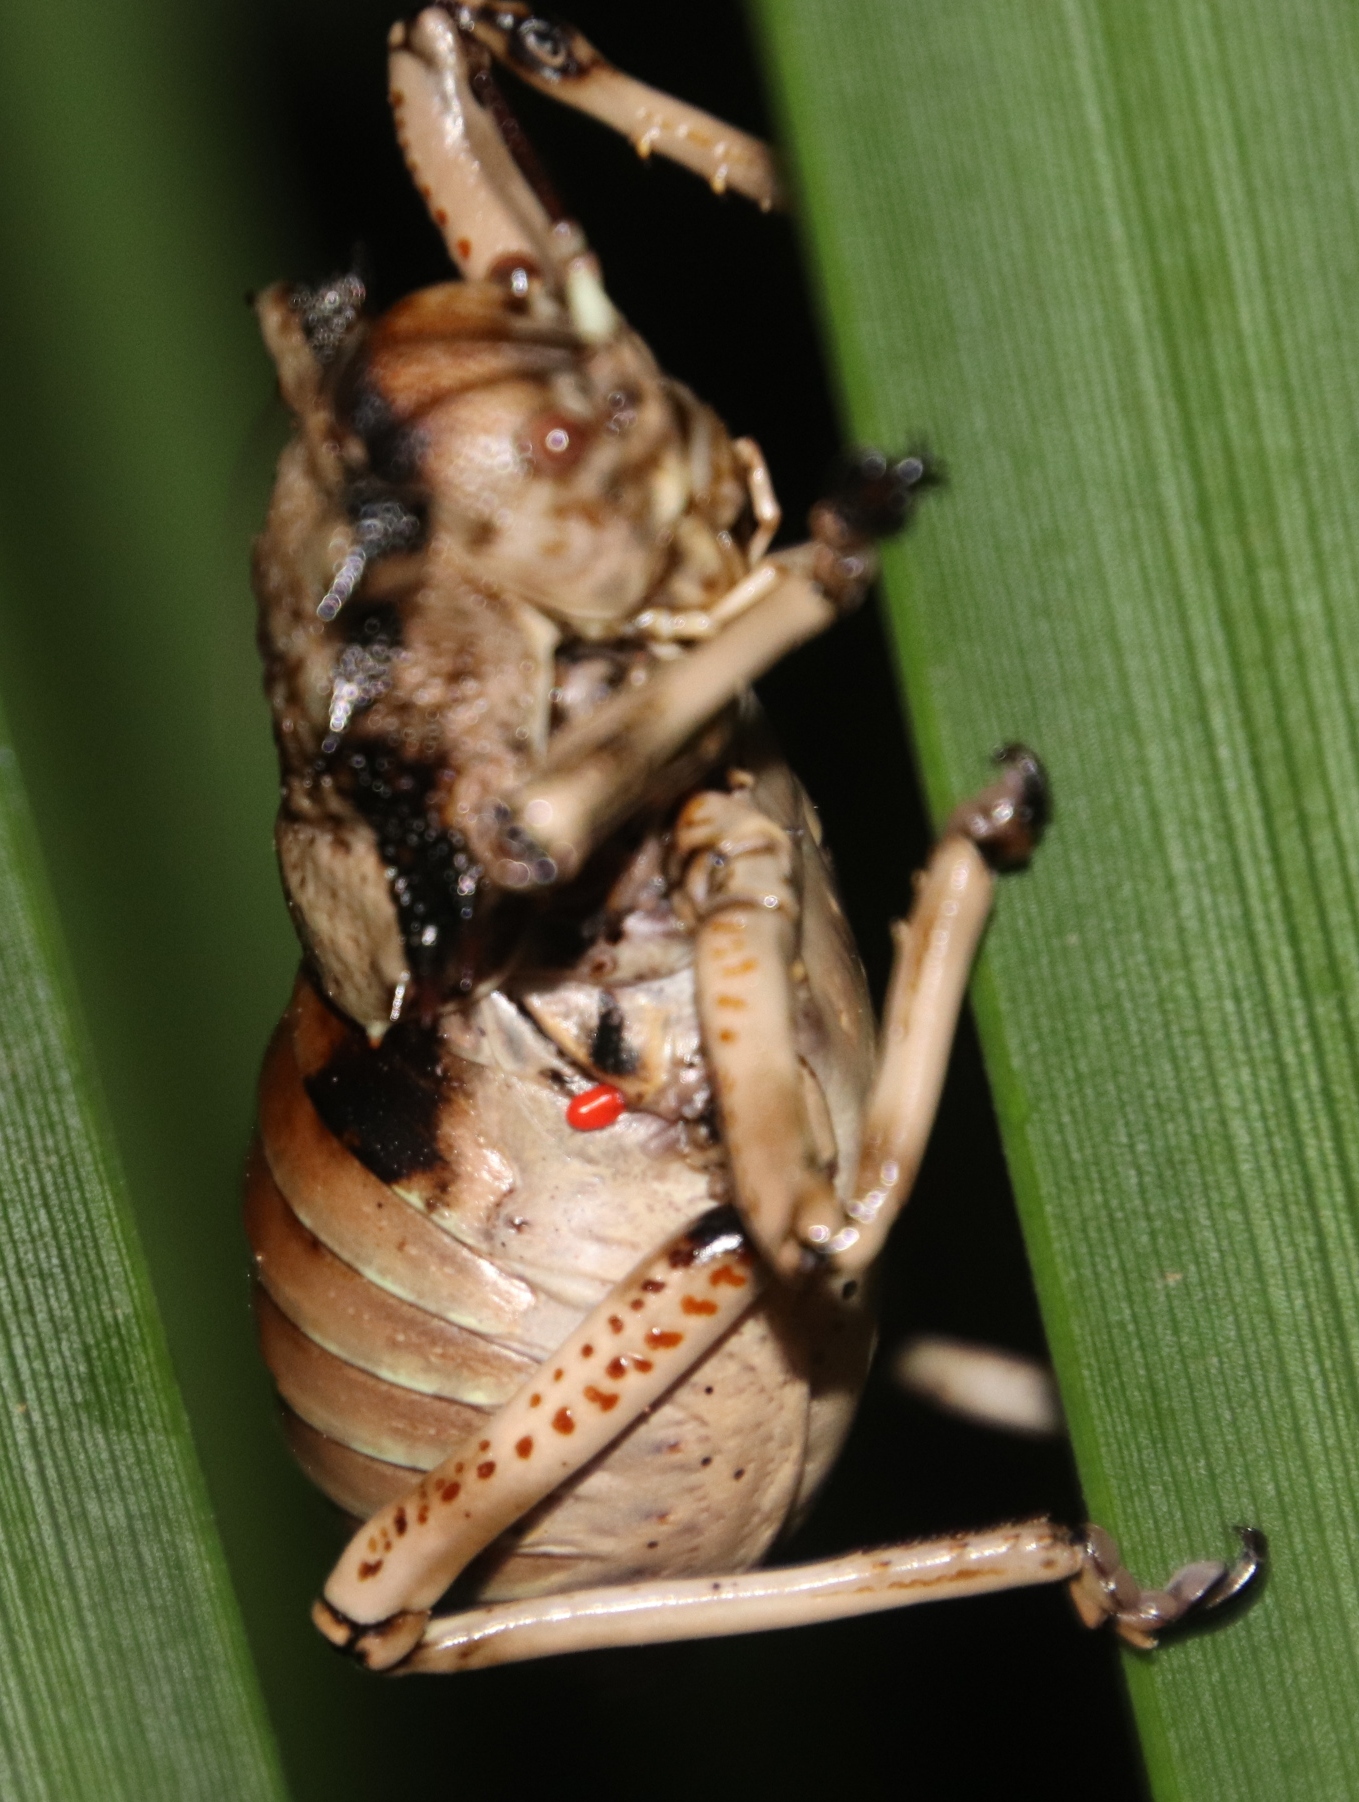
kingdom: Animalia
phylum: Arthropoda
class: Insecta
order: Orthoptera
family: Tettigoniidae
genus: Enyaliopsis
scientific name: Enyaliopsis transvaalensis
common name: Northern armoured katydid
